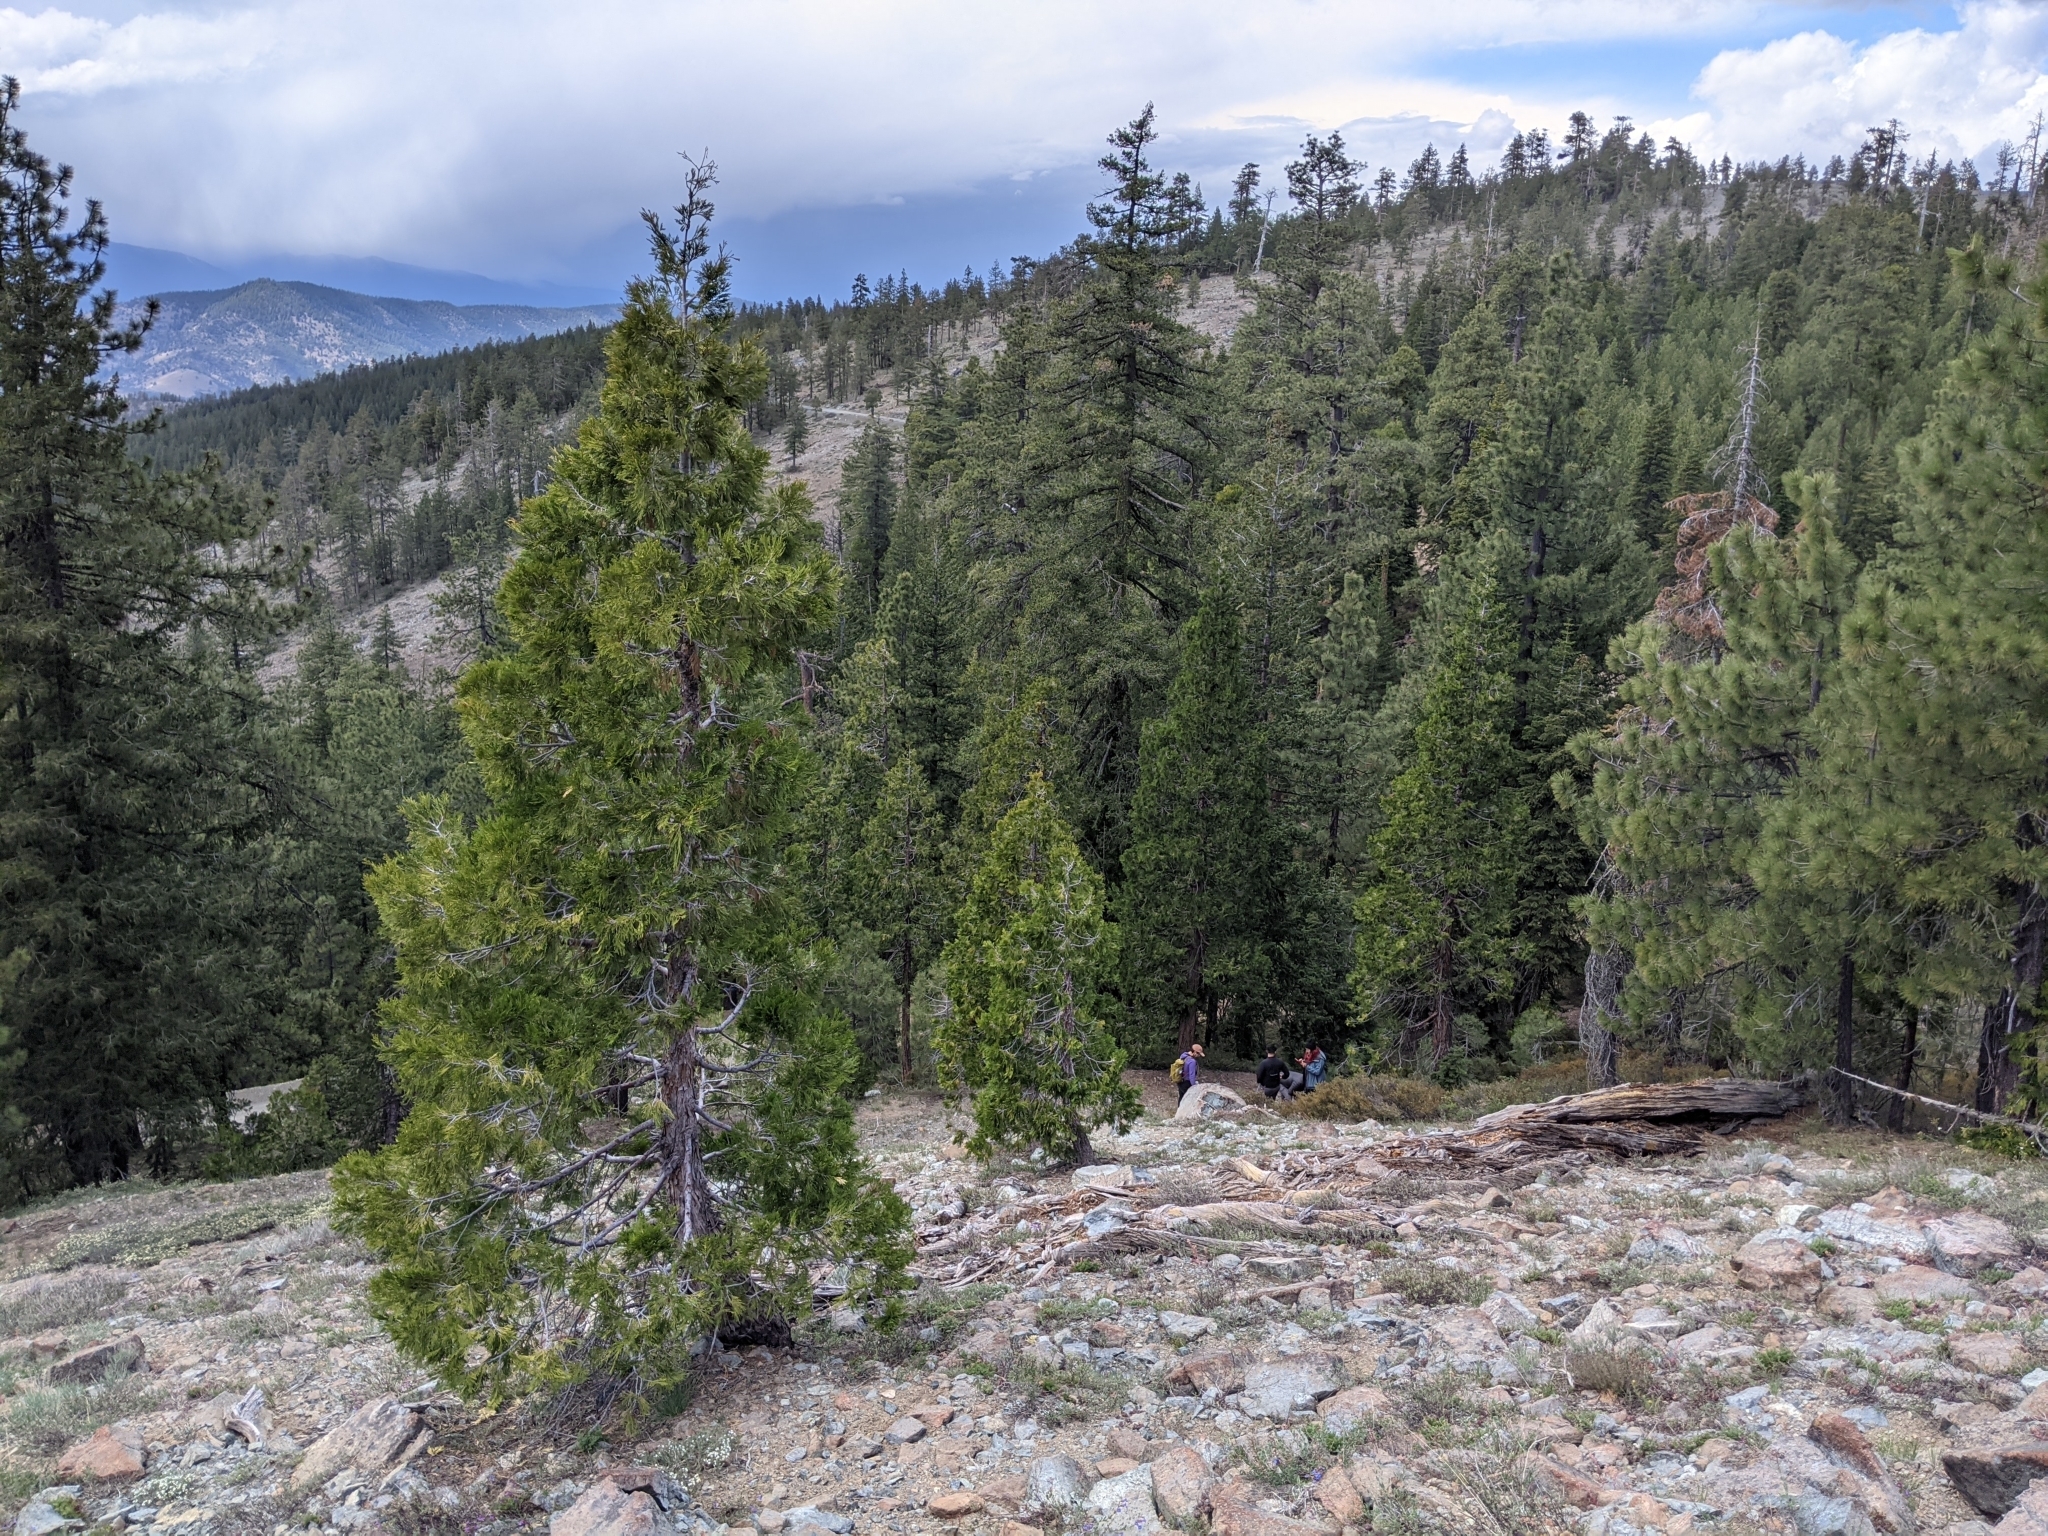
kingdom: Plantae
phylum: Tracheophyta
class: Pinopsida
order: Pinales
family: Cupressaceae
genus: Calocedrus
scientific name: Calocedrus decurrens
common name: Californian incense-cedar
